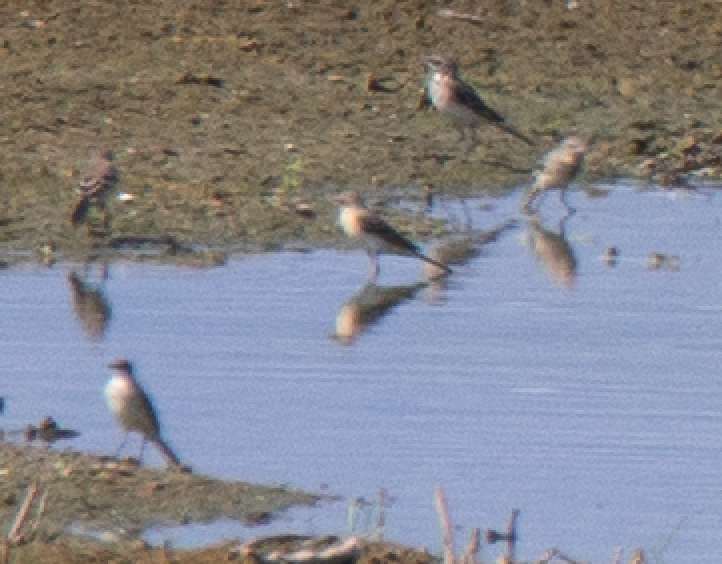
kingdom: Animalia
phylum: Chordata
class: Aves
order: Passeriformes
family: Motacillidae
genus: Motacilla
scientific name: Motacilla flava
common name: Western yellow wagtail
